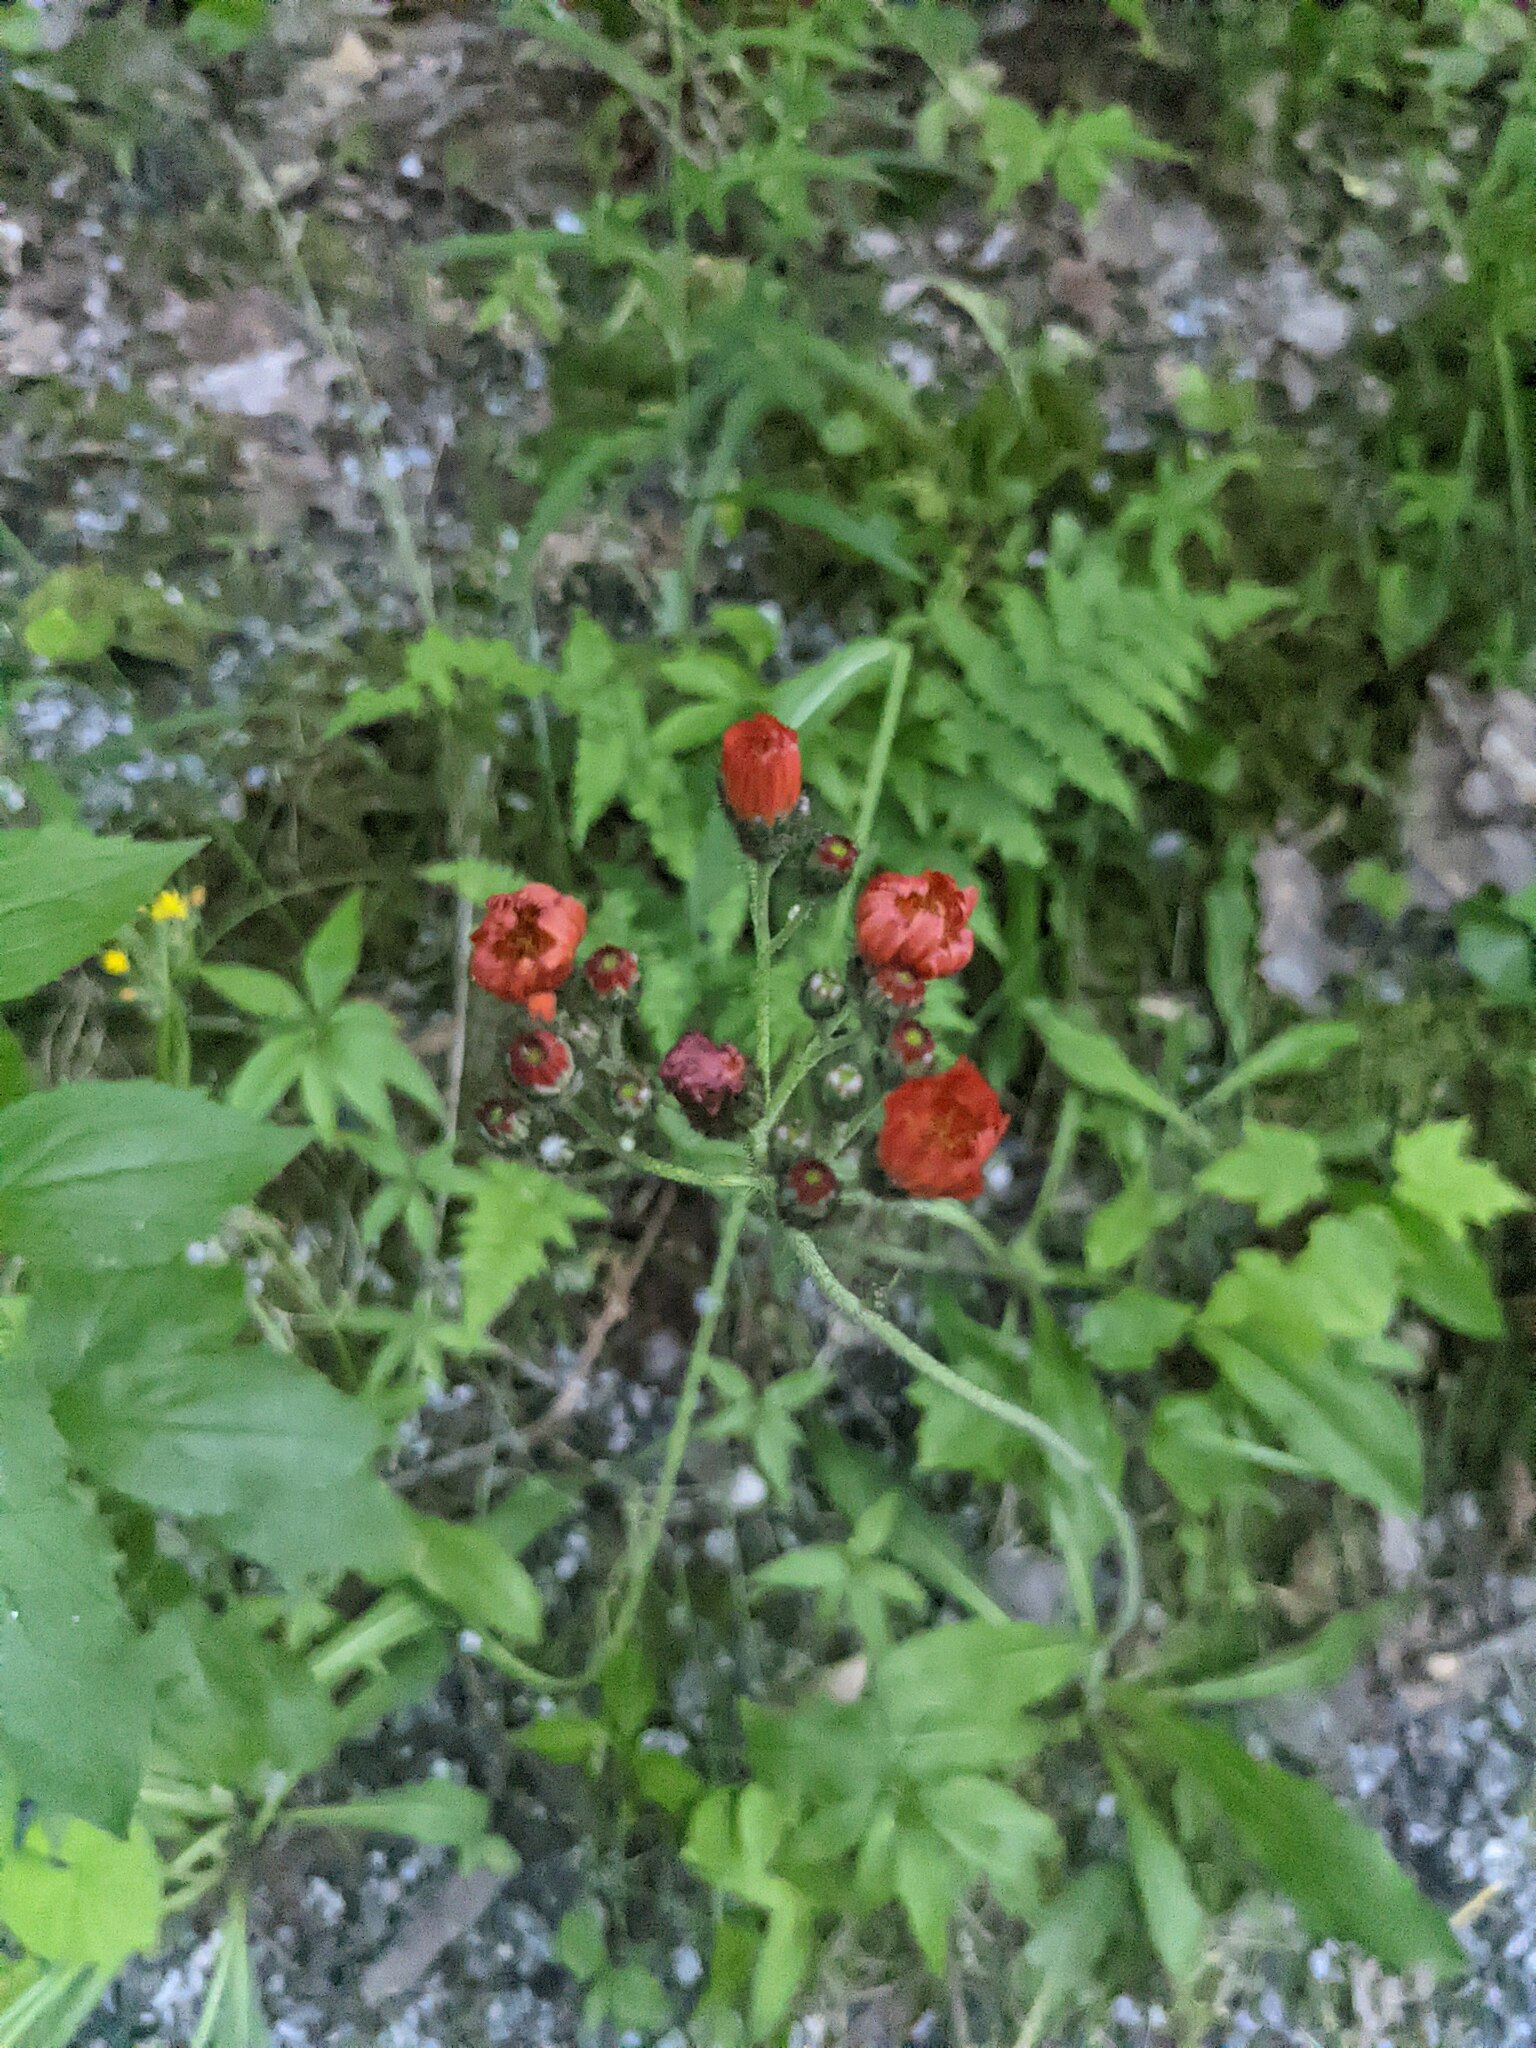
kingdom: Plantae
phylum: Tracheophyta
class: Magnoliopsida
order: Asterales
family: Asteraceae
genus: Pilosella
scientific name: Pilosella aurantiaca
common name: Fox-and-cubs
